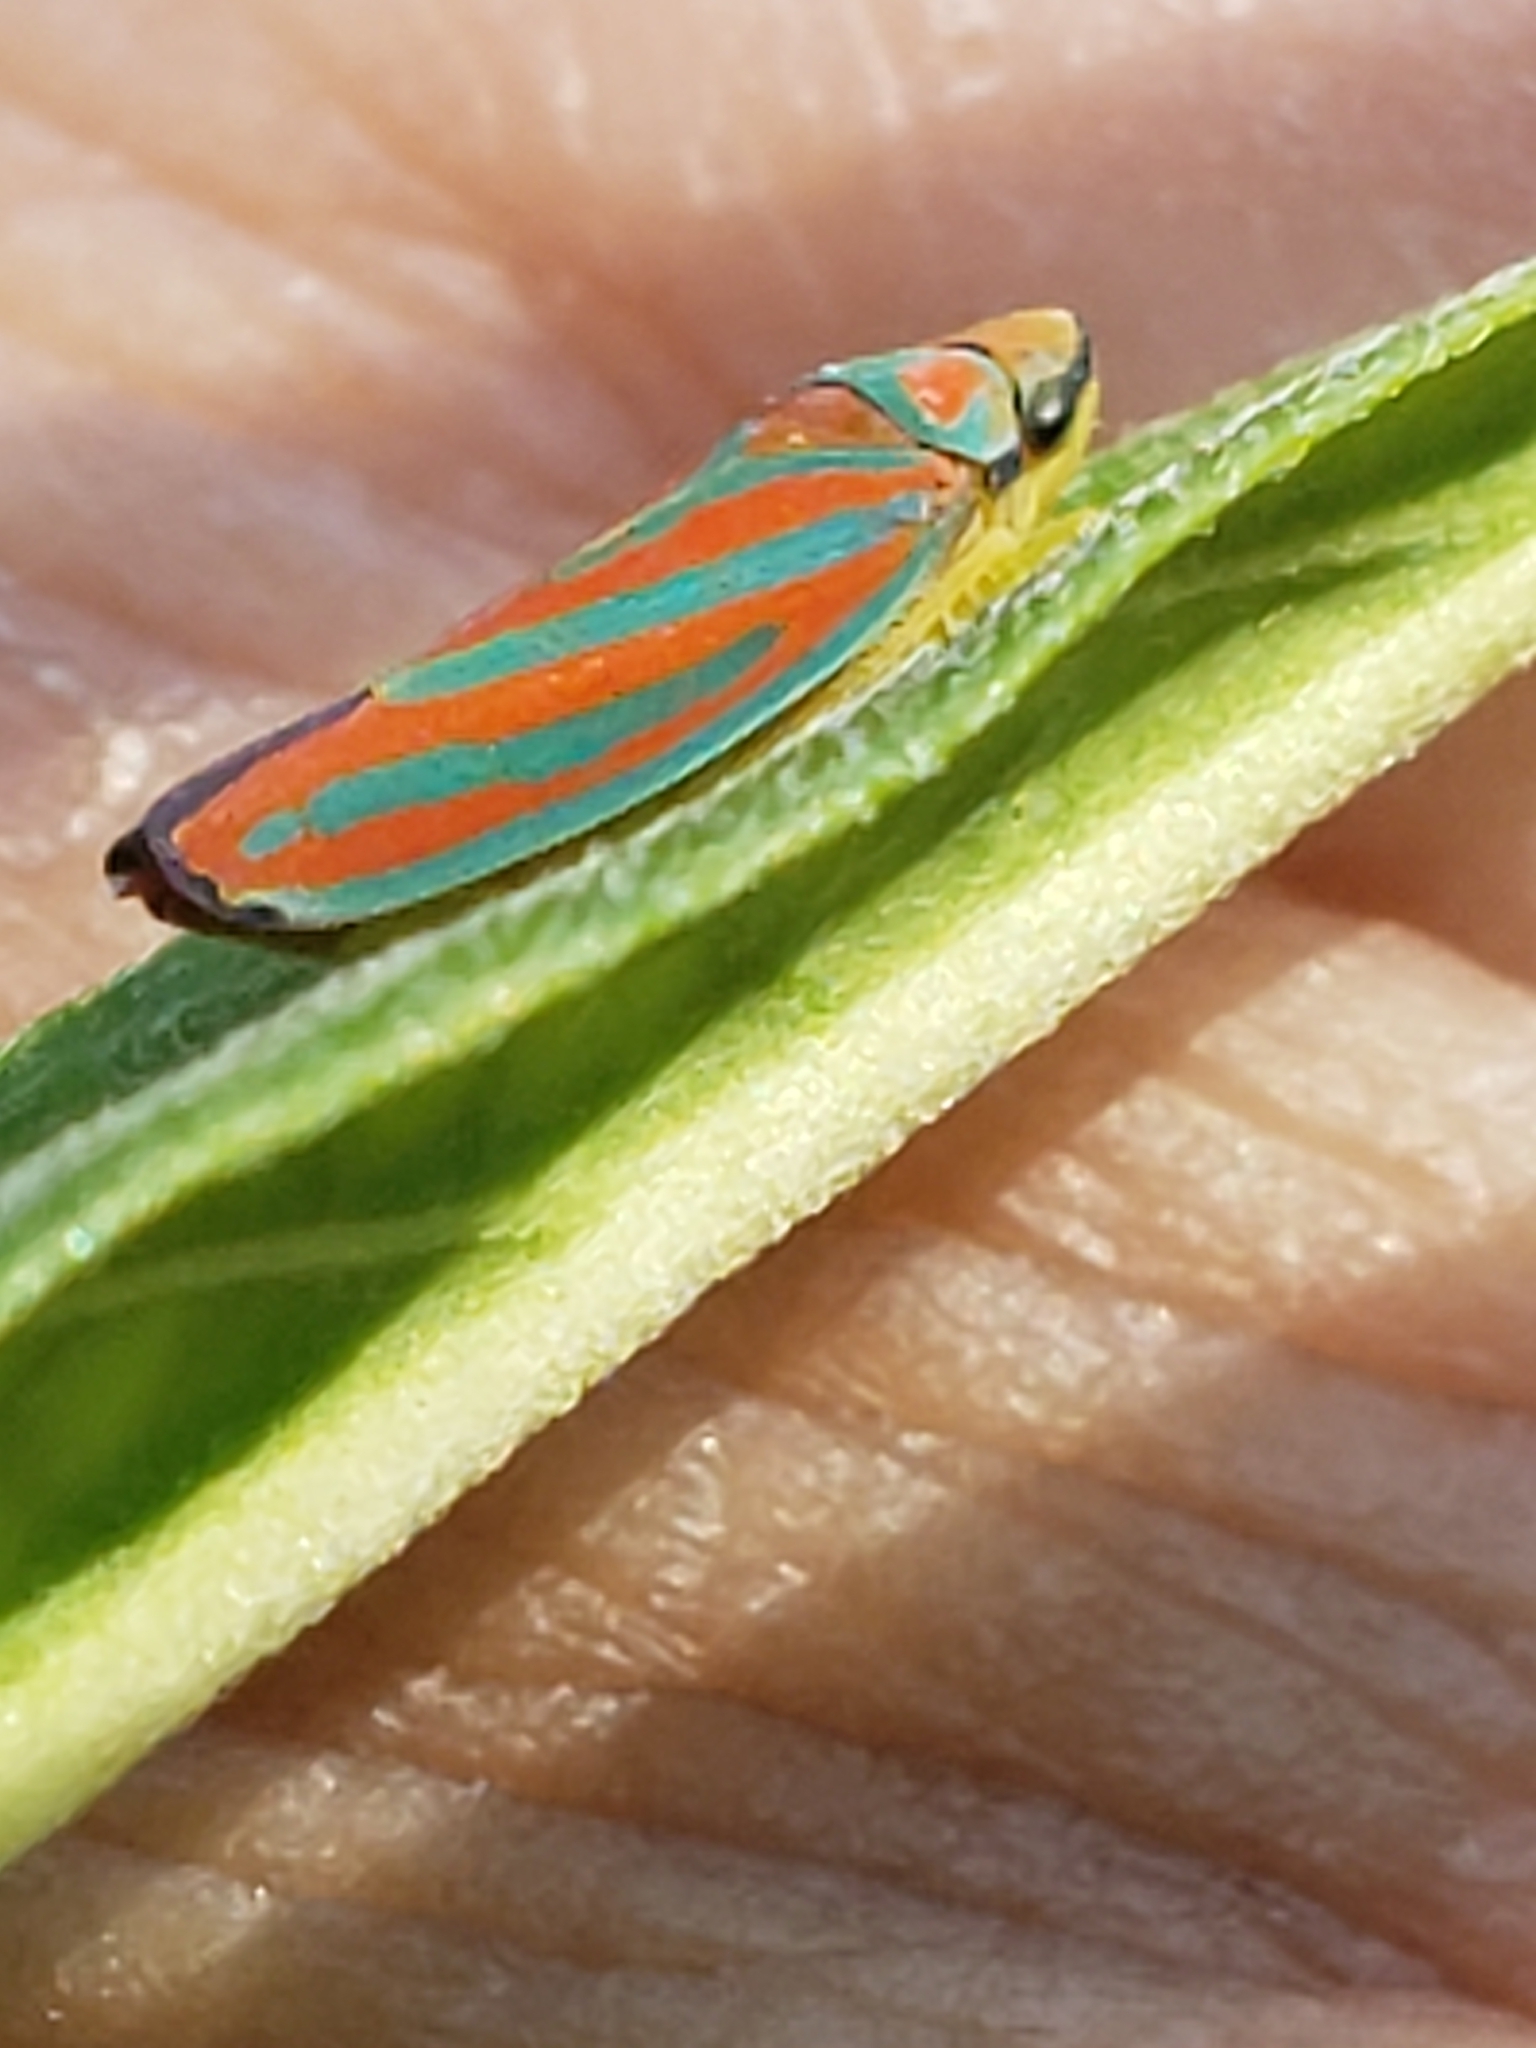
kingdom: Animalia
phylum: Arthropoda
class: Insecta
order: Hemiptera
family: Cicadellidae
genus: Graphocephala
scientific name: Graphocephala coccinea
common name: Candy-striped leafhopper
